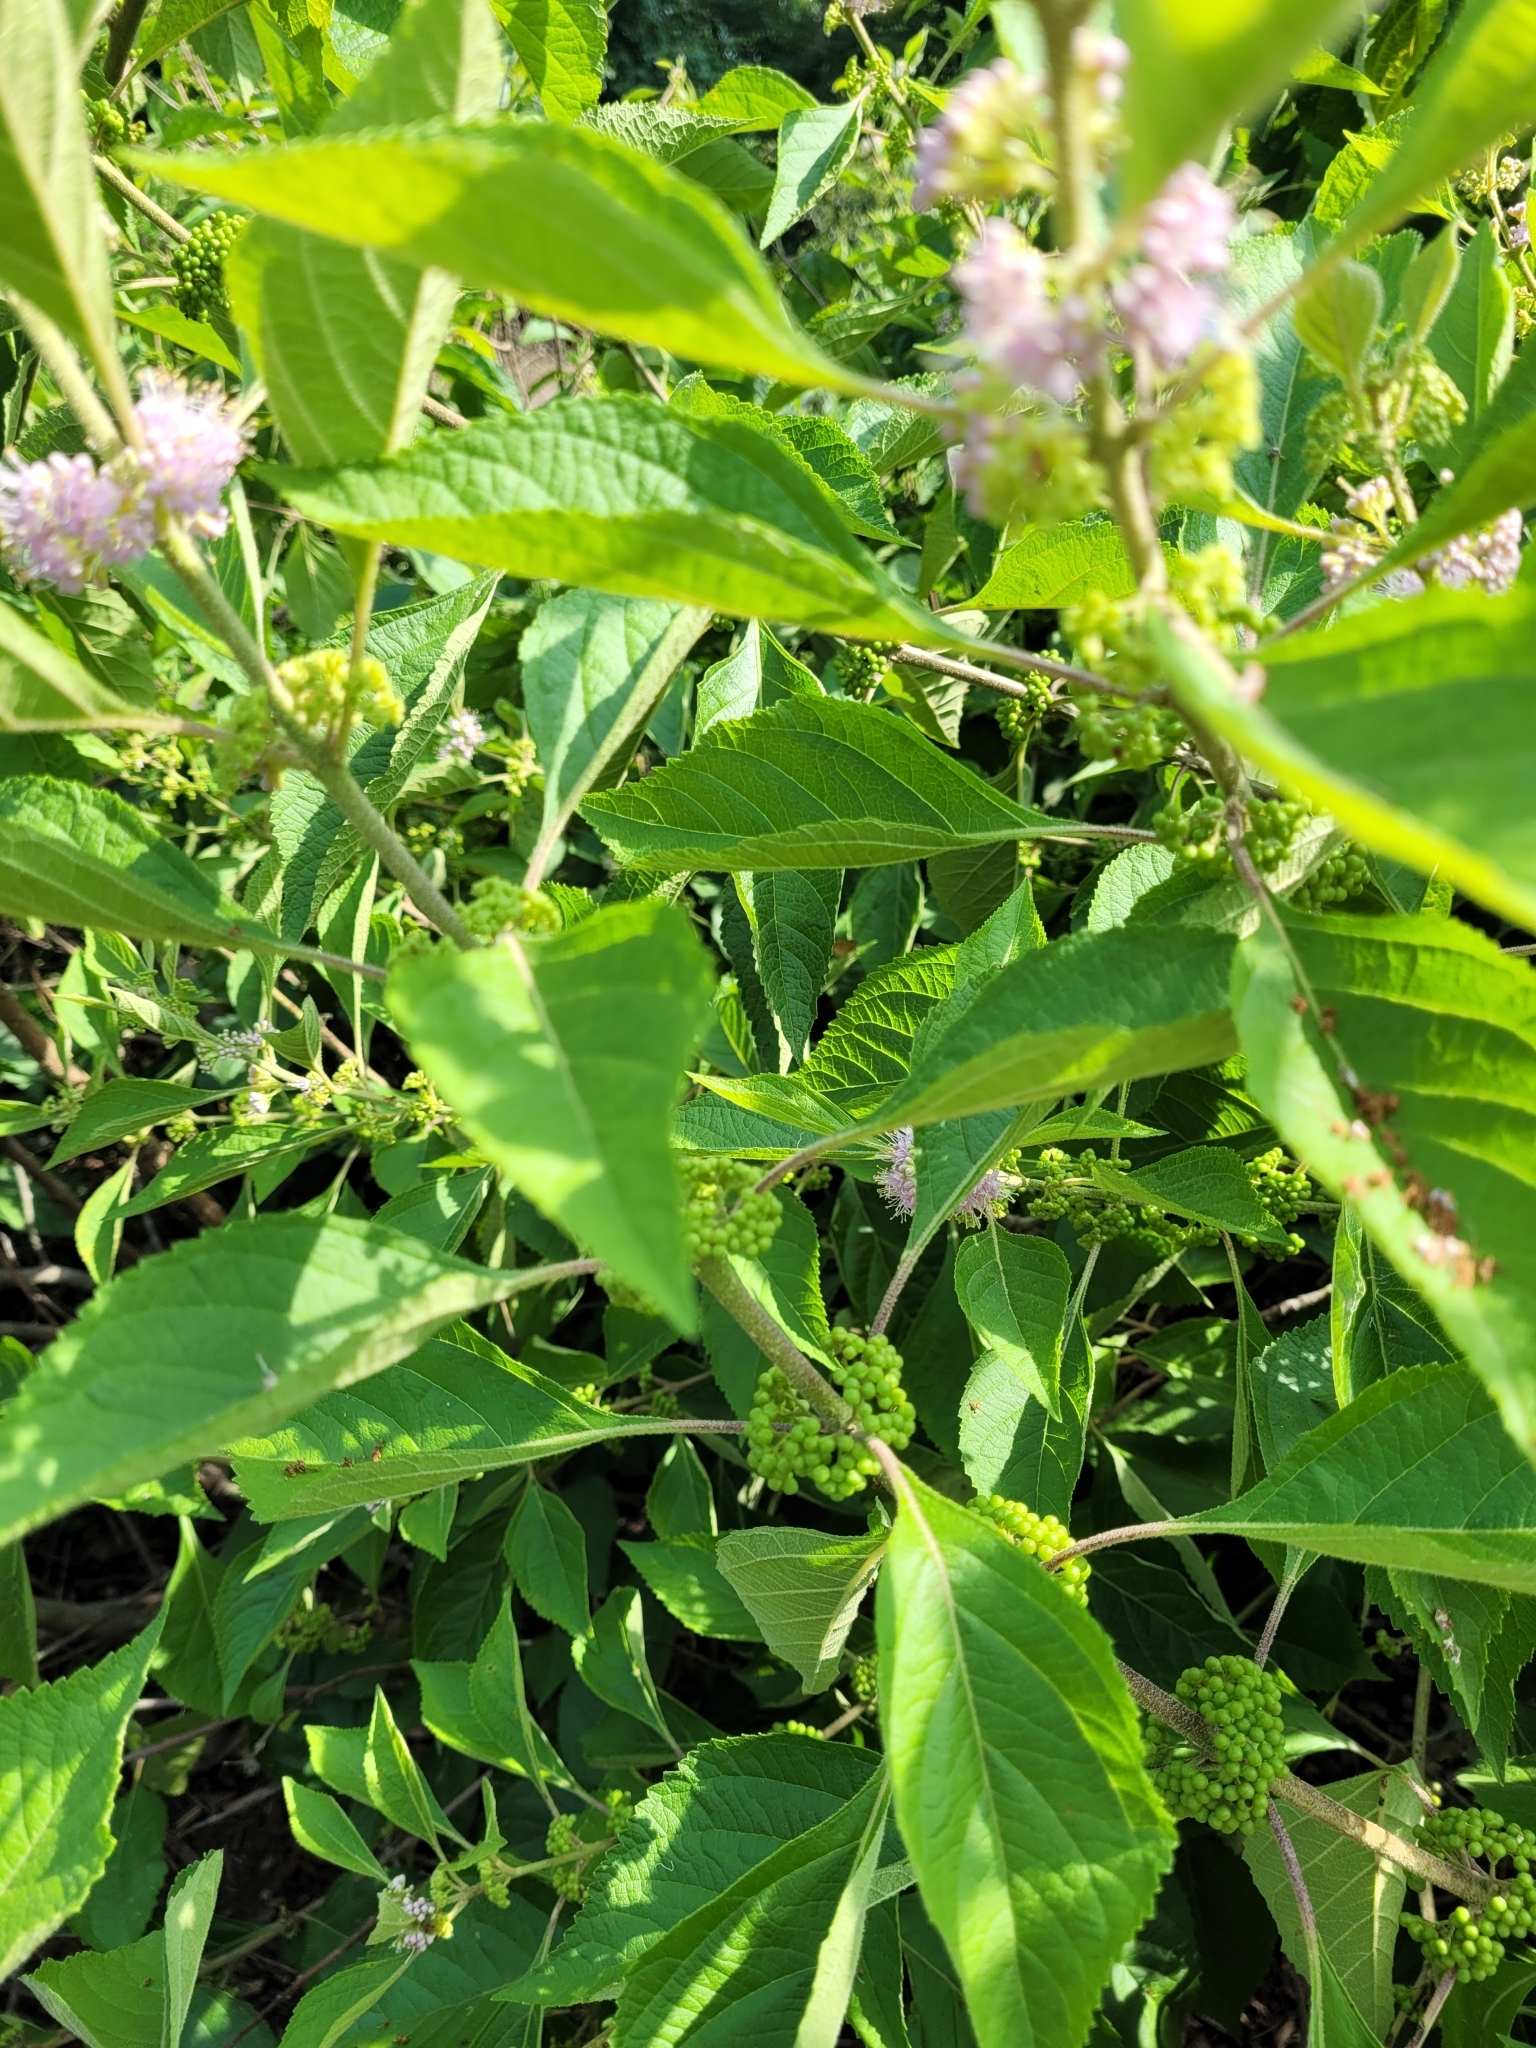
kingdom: Plantae
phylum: Tracheophyta
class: Magnoliopsida
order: Lamiales
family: Lamiaceae
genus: Callicarpa
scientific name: Callicarpa americana
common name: American beautyberry
